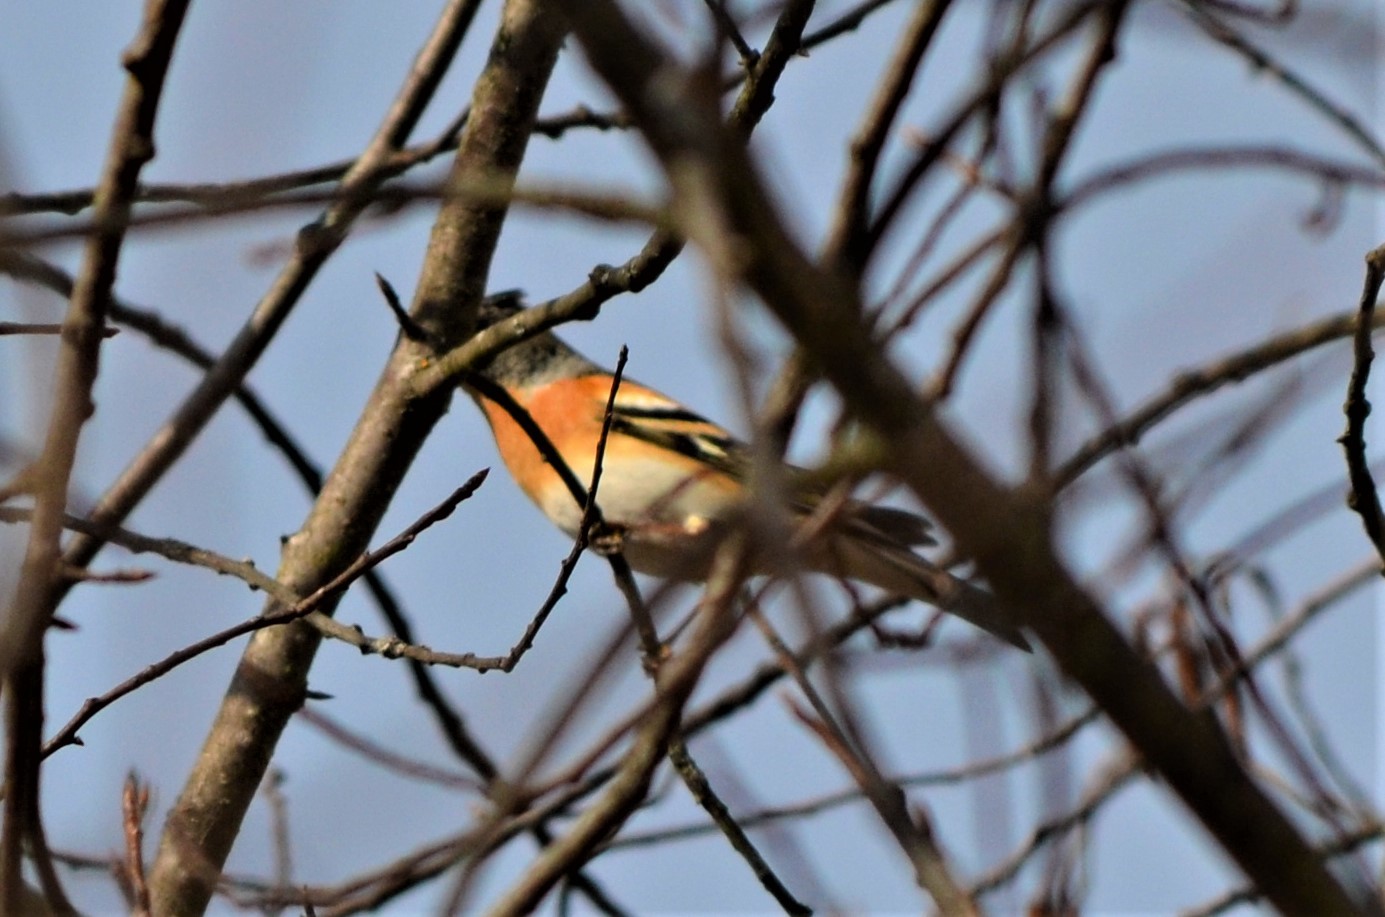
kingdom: Animalia
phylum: Chordata
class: Aves
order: Passeriformes
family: Fringillidae
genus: Fringilla
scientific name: Fringilla montifringilla
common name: Brambling
